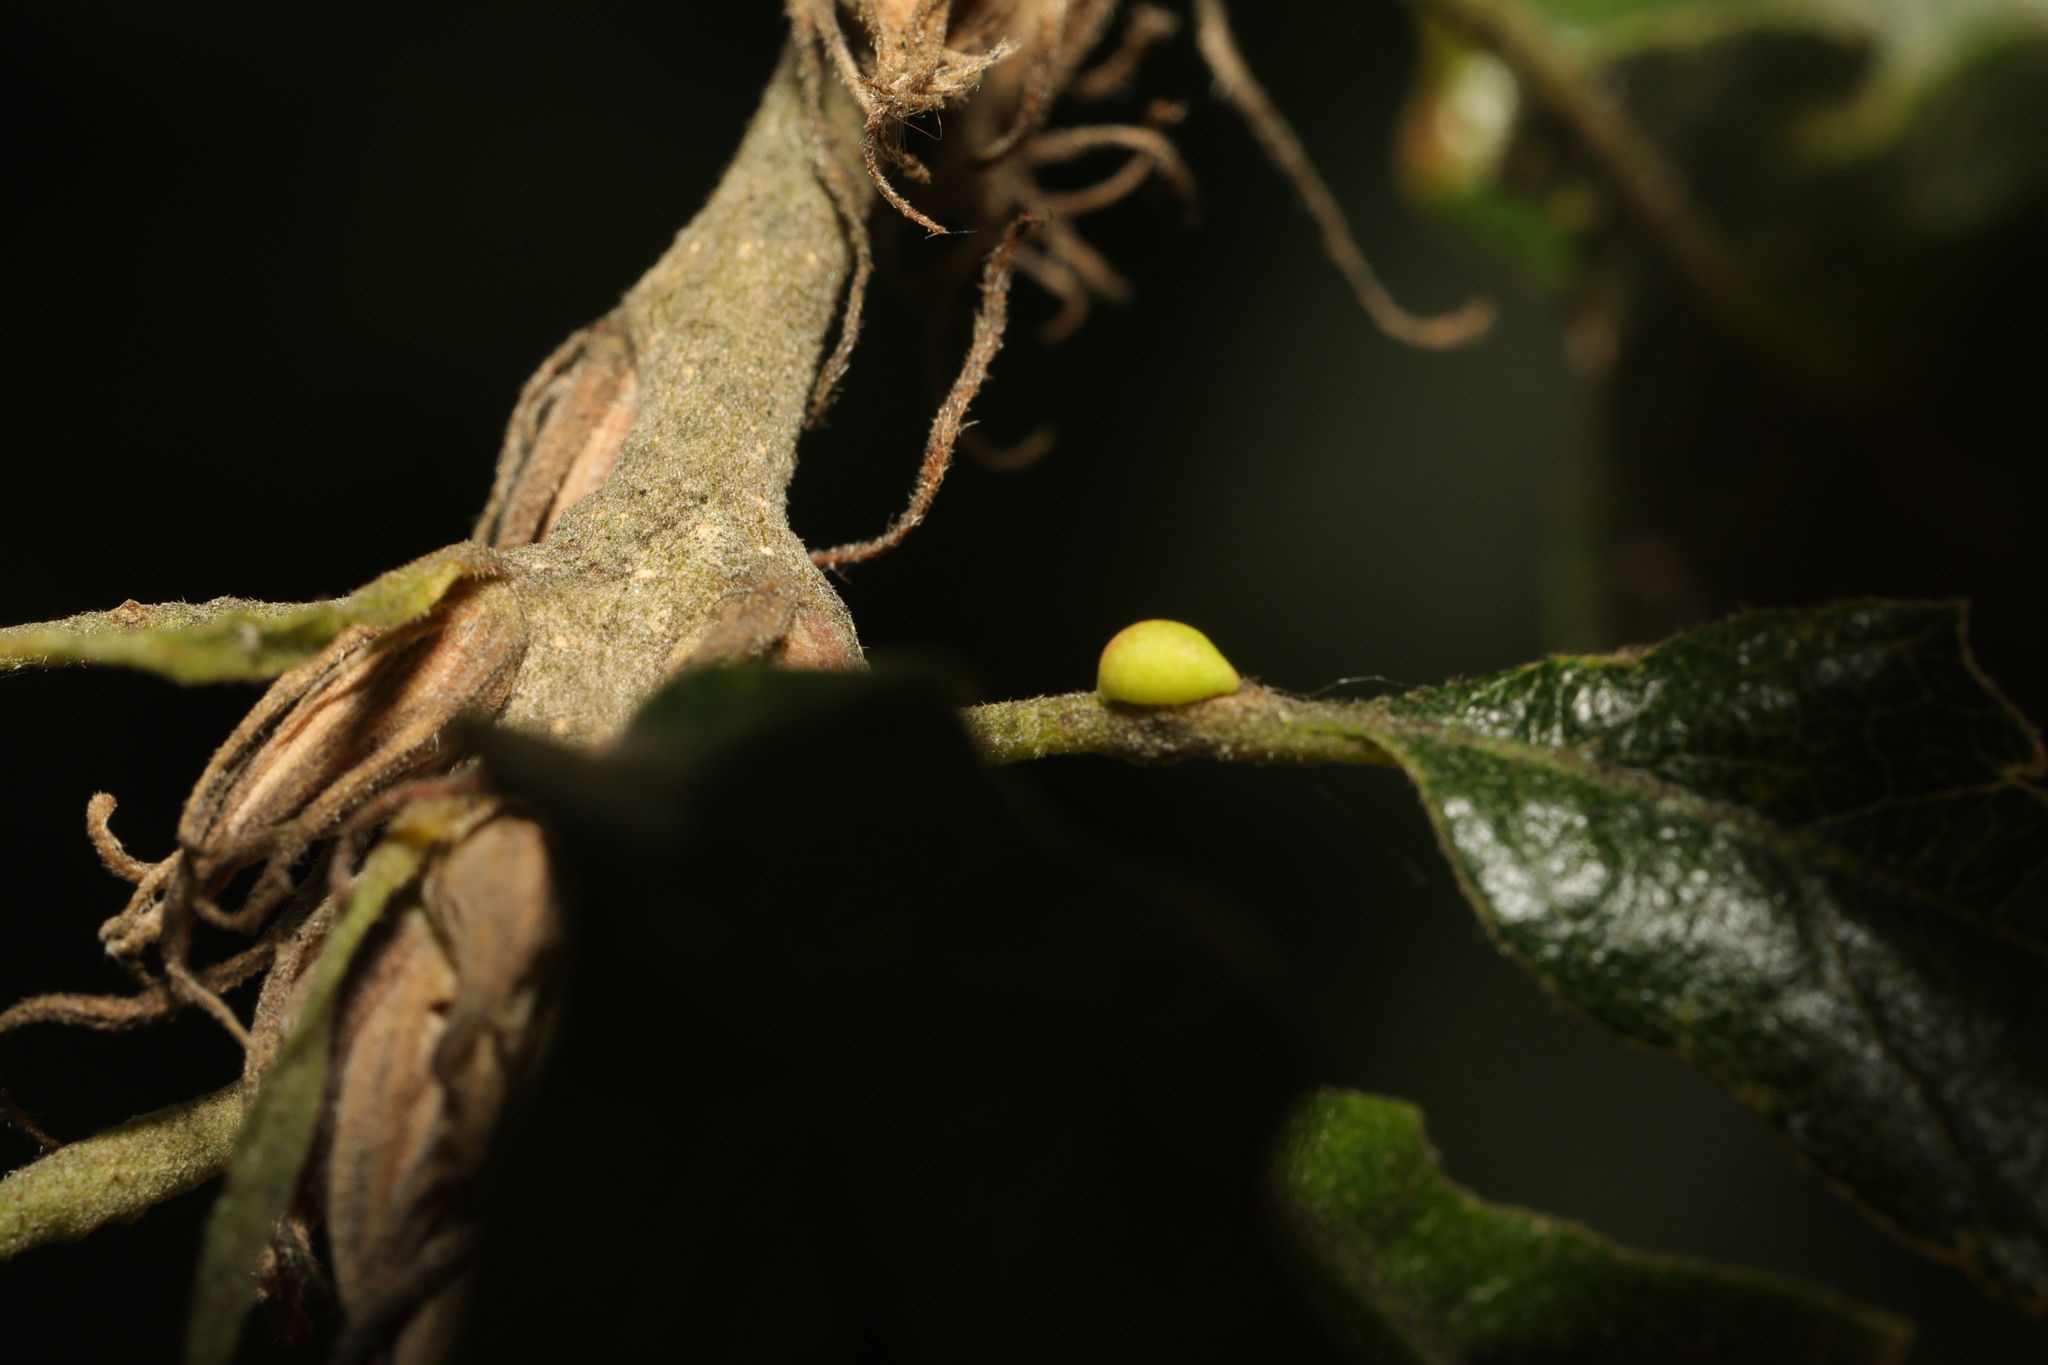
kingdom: Animalia
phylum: Arthropoda
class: Insecta
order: Hymenoptera
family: Cynipidae
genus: Neuroterus
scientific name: Neuroterus saliens
